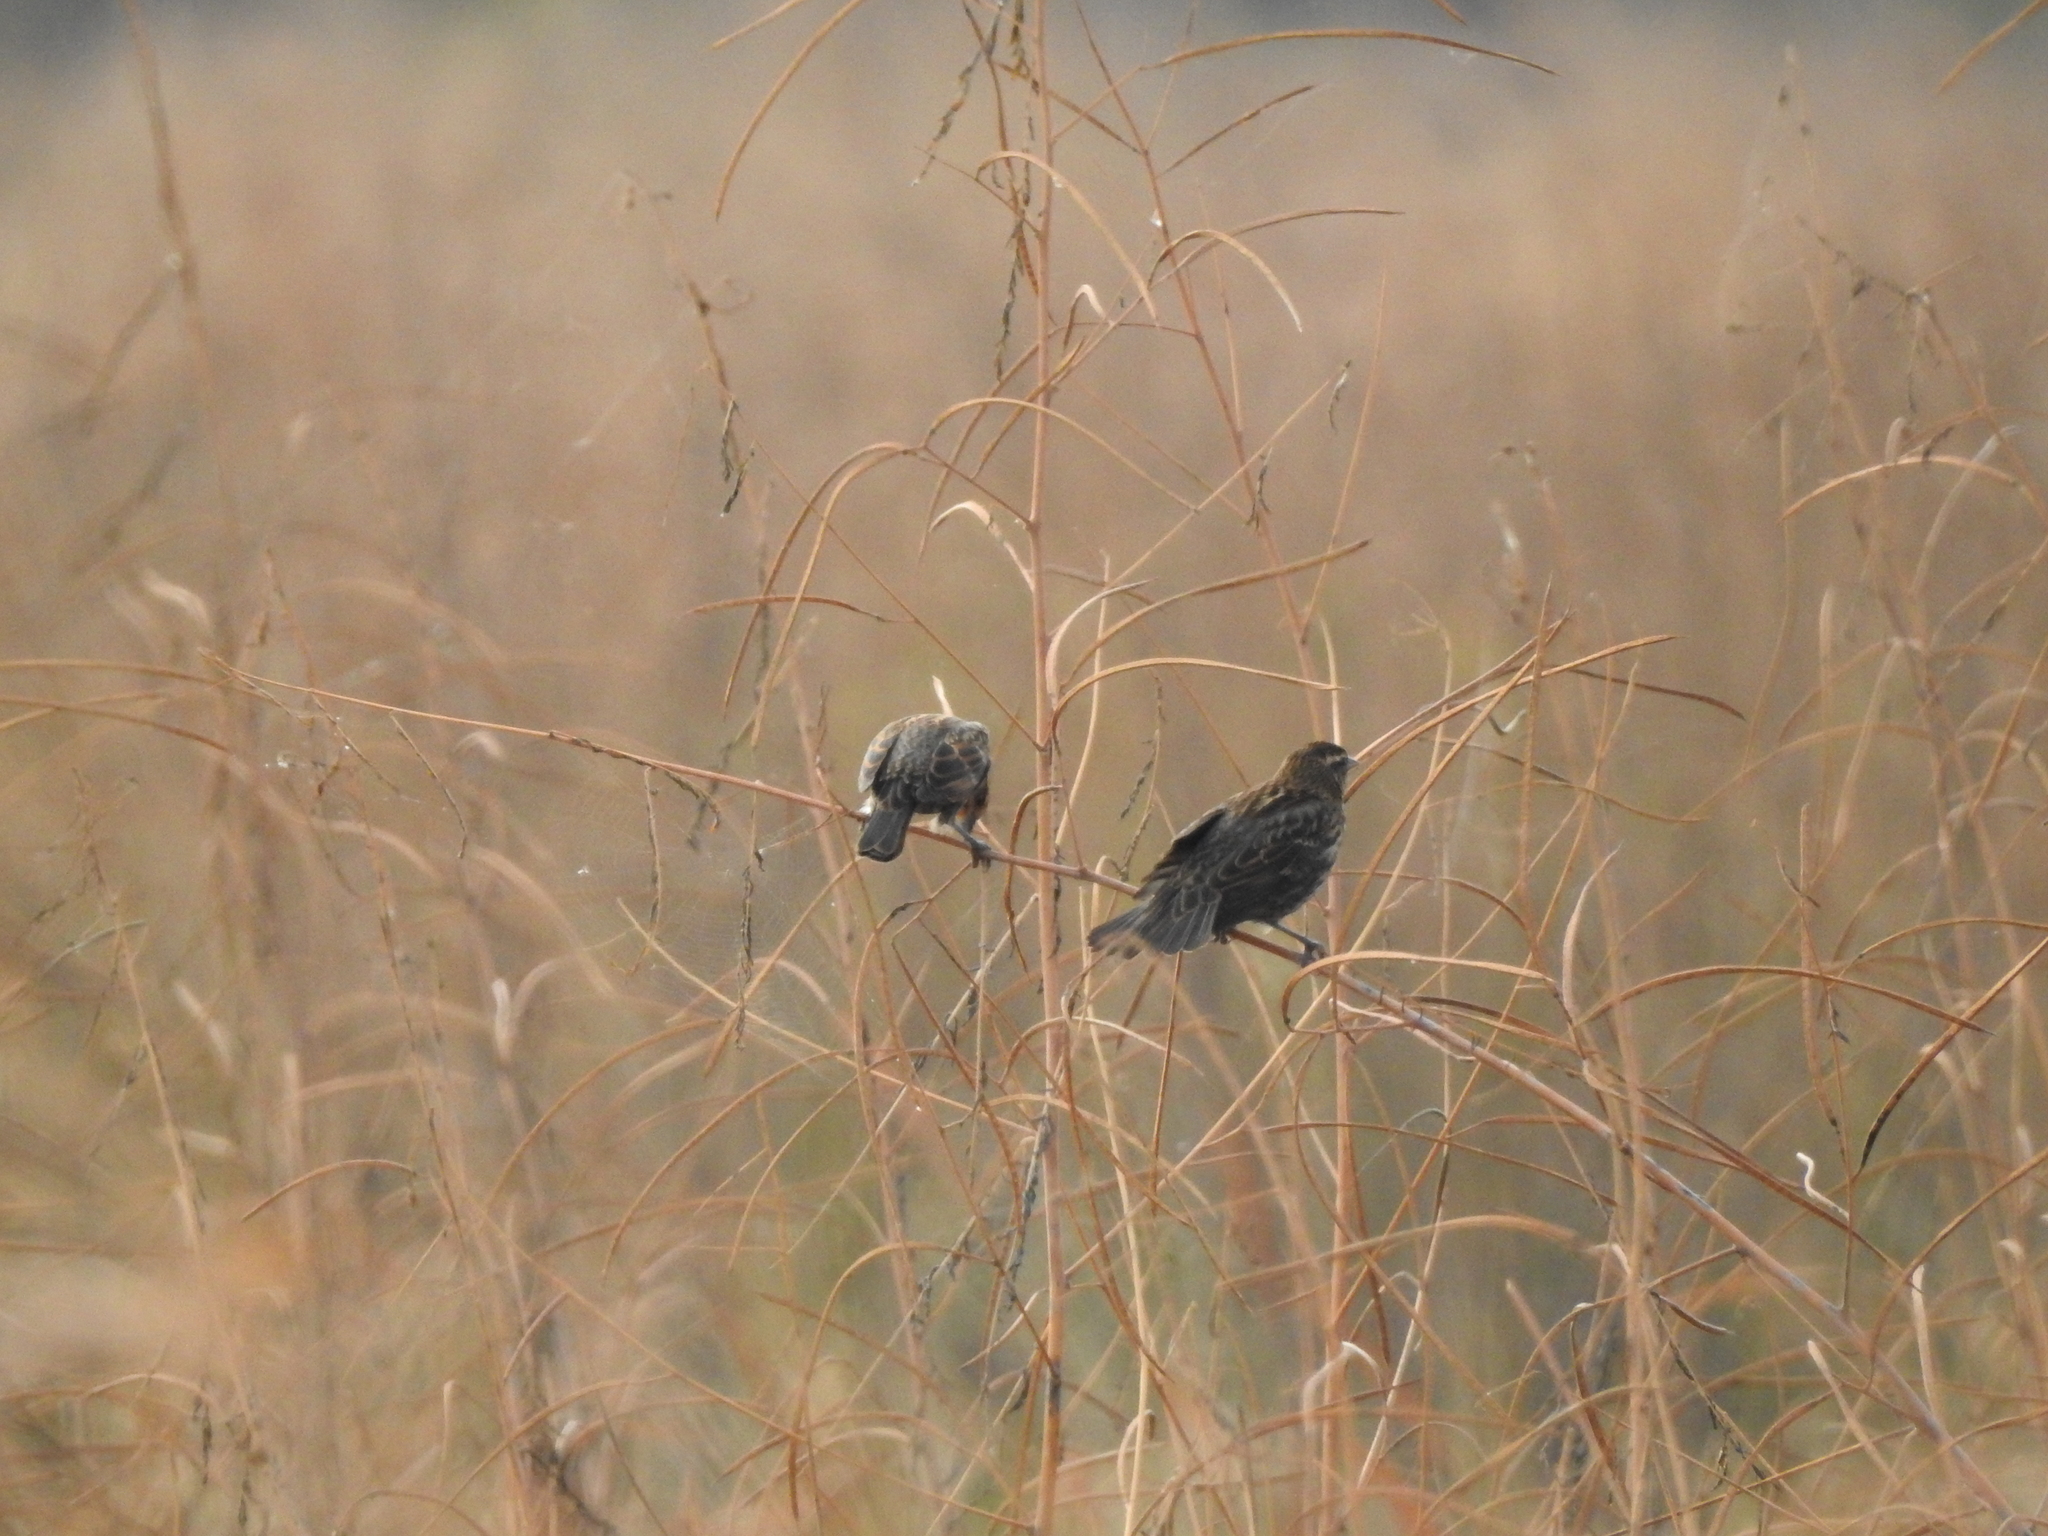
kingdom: Animalia
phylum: Chordata
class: Aves
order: Passeriformes
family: Icteridae
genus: Agelaius
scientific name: Agelaius phoeniceus
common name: Red-winged blackbird
